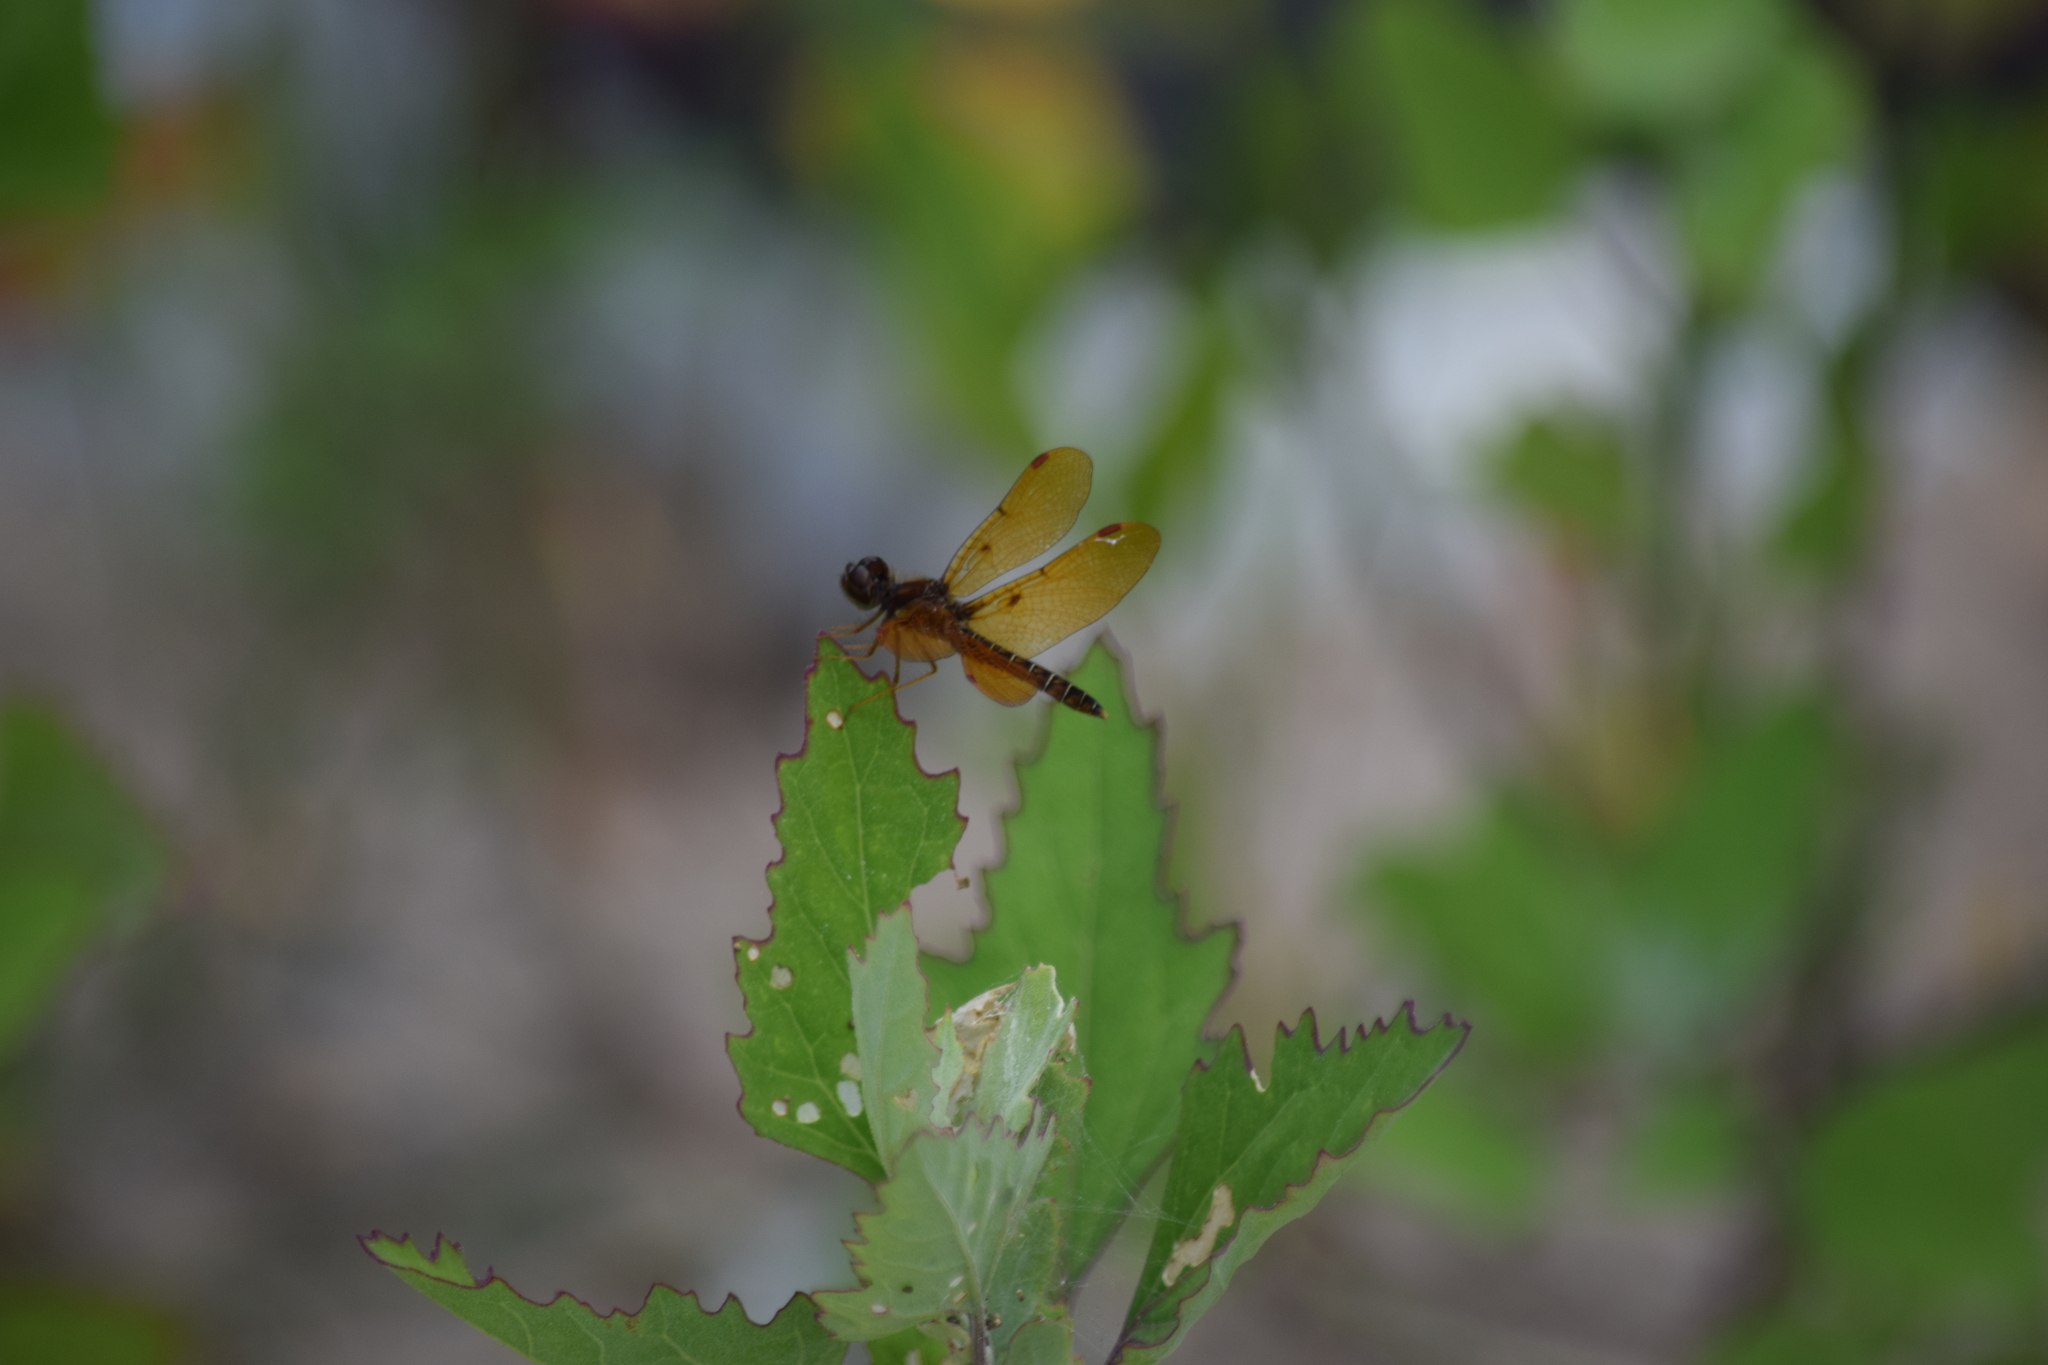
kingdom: Animalia
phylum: Arthropoda
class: Insecta
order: Odonata
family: Libellulidae
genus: Perithemis
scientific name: Perithemis tenera
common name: Eastern amberwing
